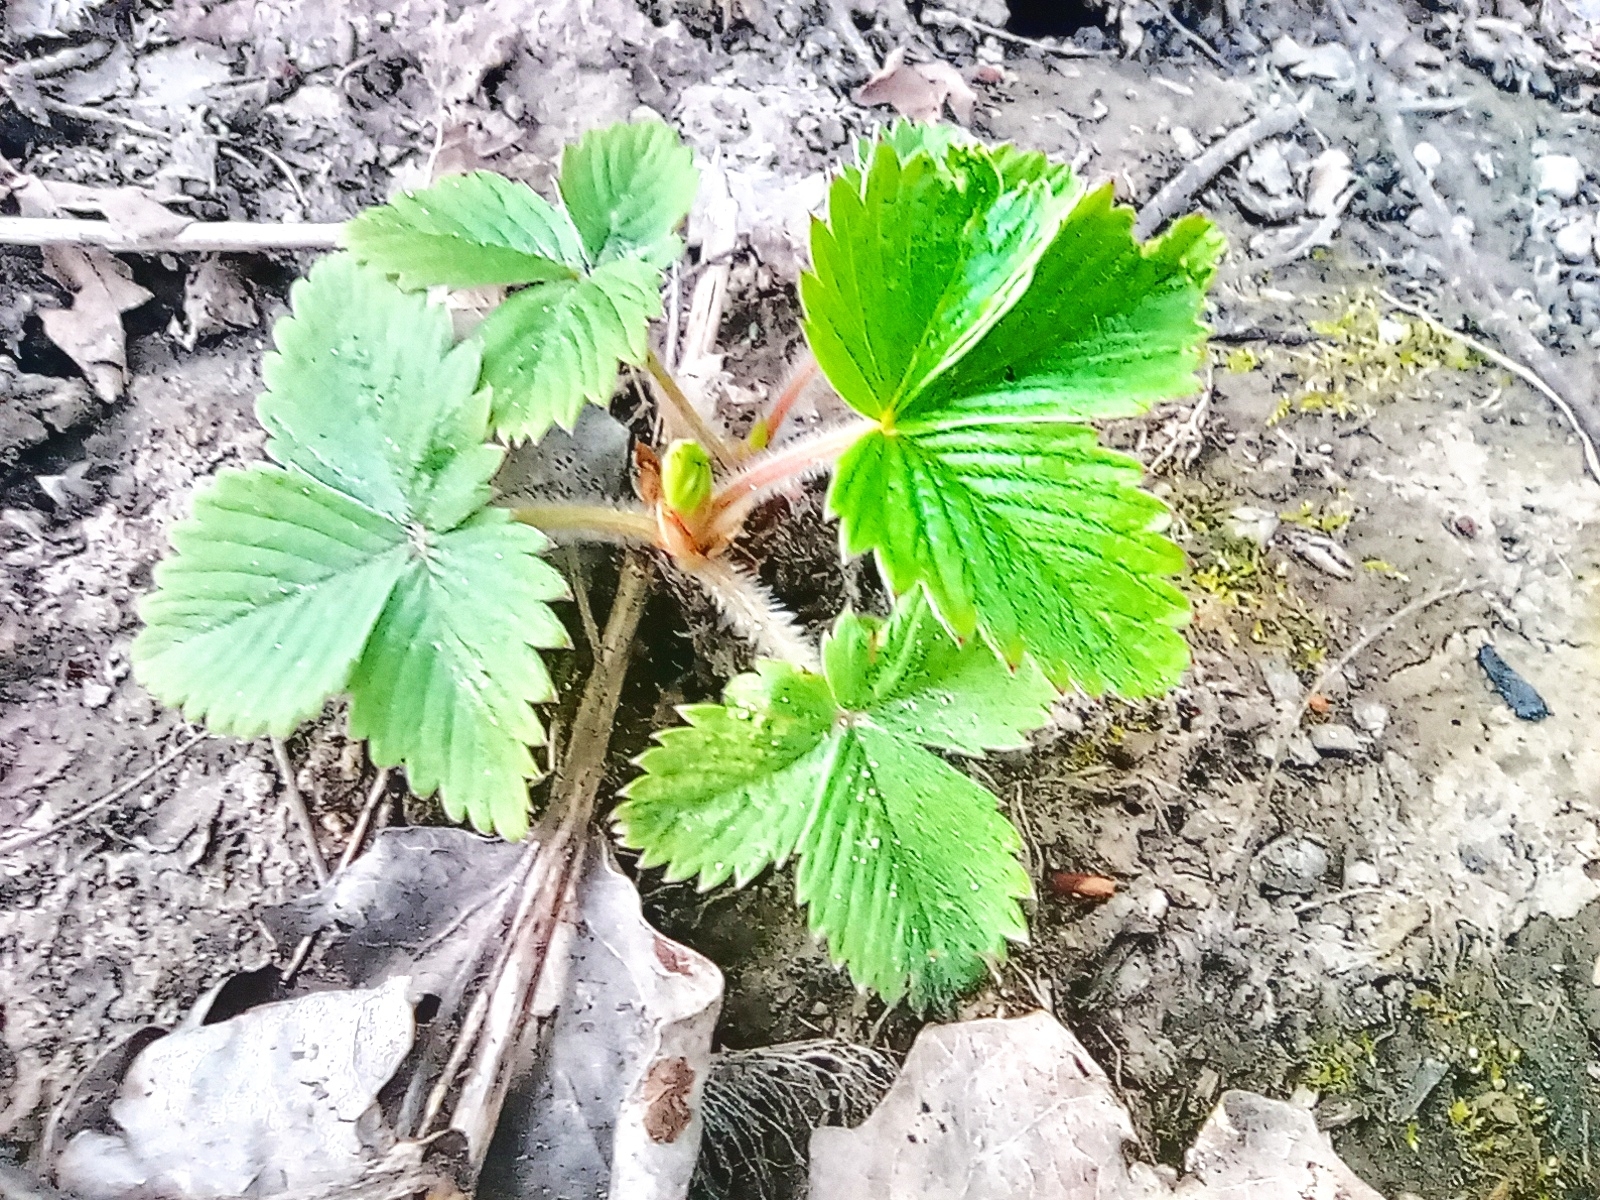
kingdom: Plantae
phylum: Tracheophyta
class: Magnoliopsida
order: Rosales
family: Rosaceae
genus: Fragaria
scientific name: Fragaria vesca
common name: Wild strawberry
